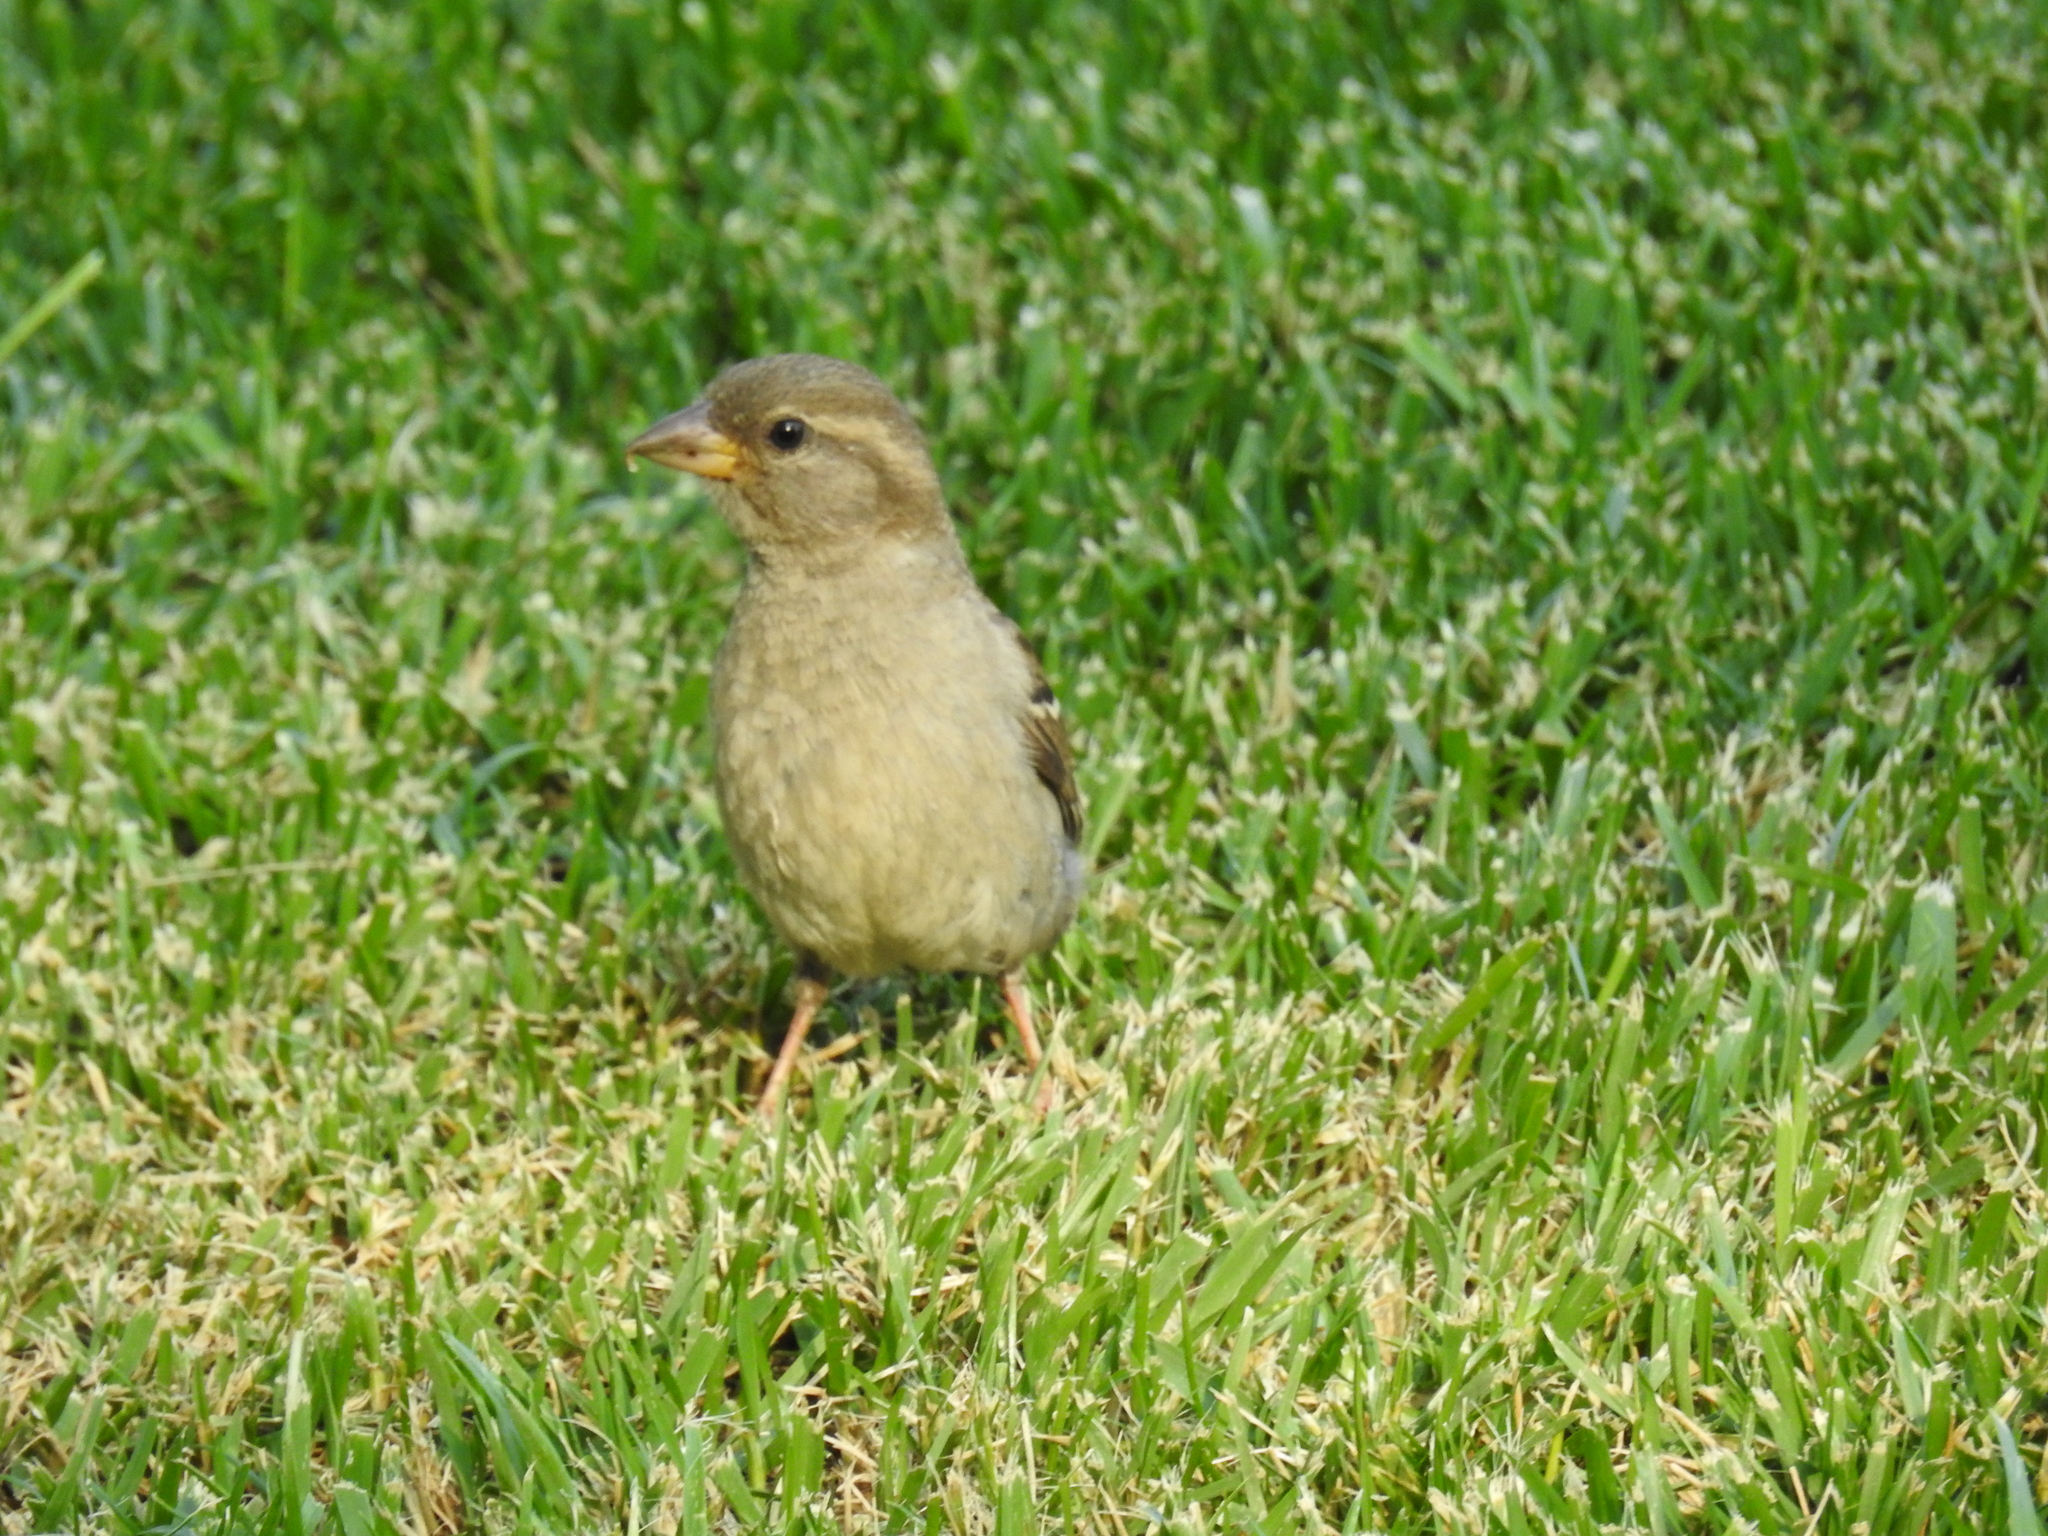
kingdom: Animalia
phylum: Chordata
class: Aves
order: Passeriformes
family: Passeridae
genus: Passer
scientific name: Passer domesticus
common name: House sparrow
